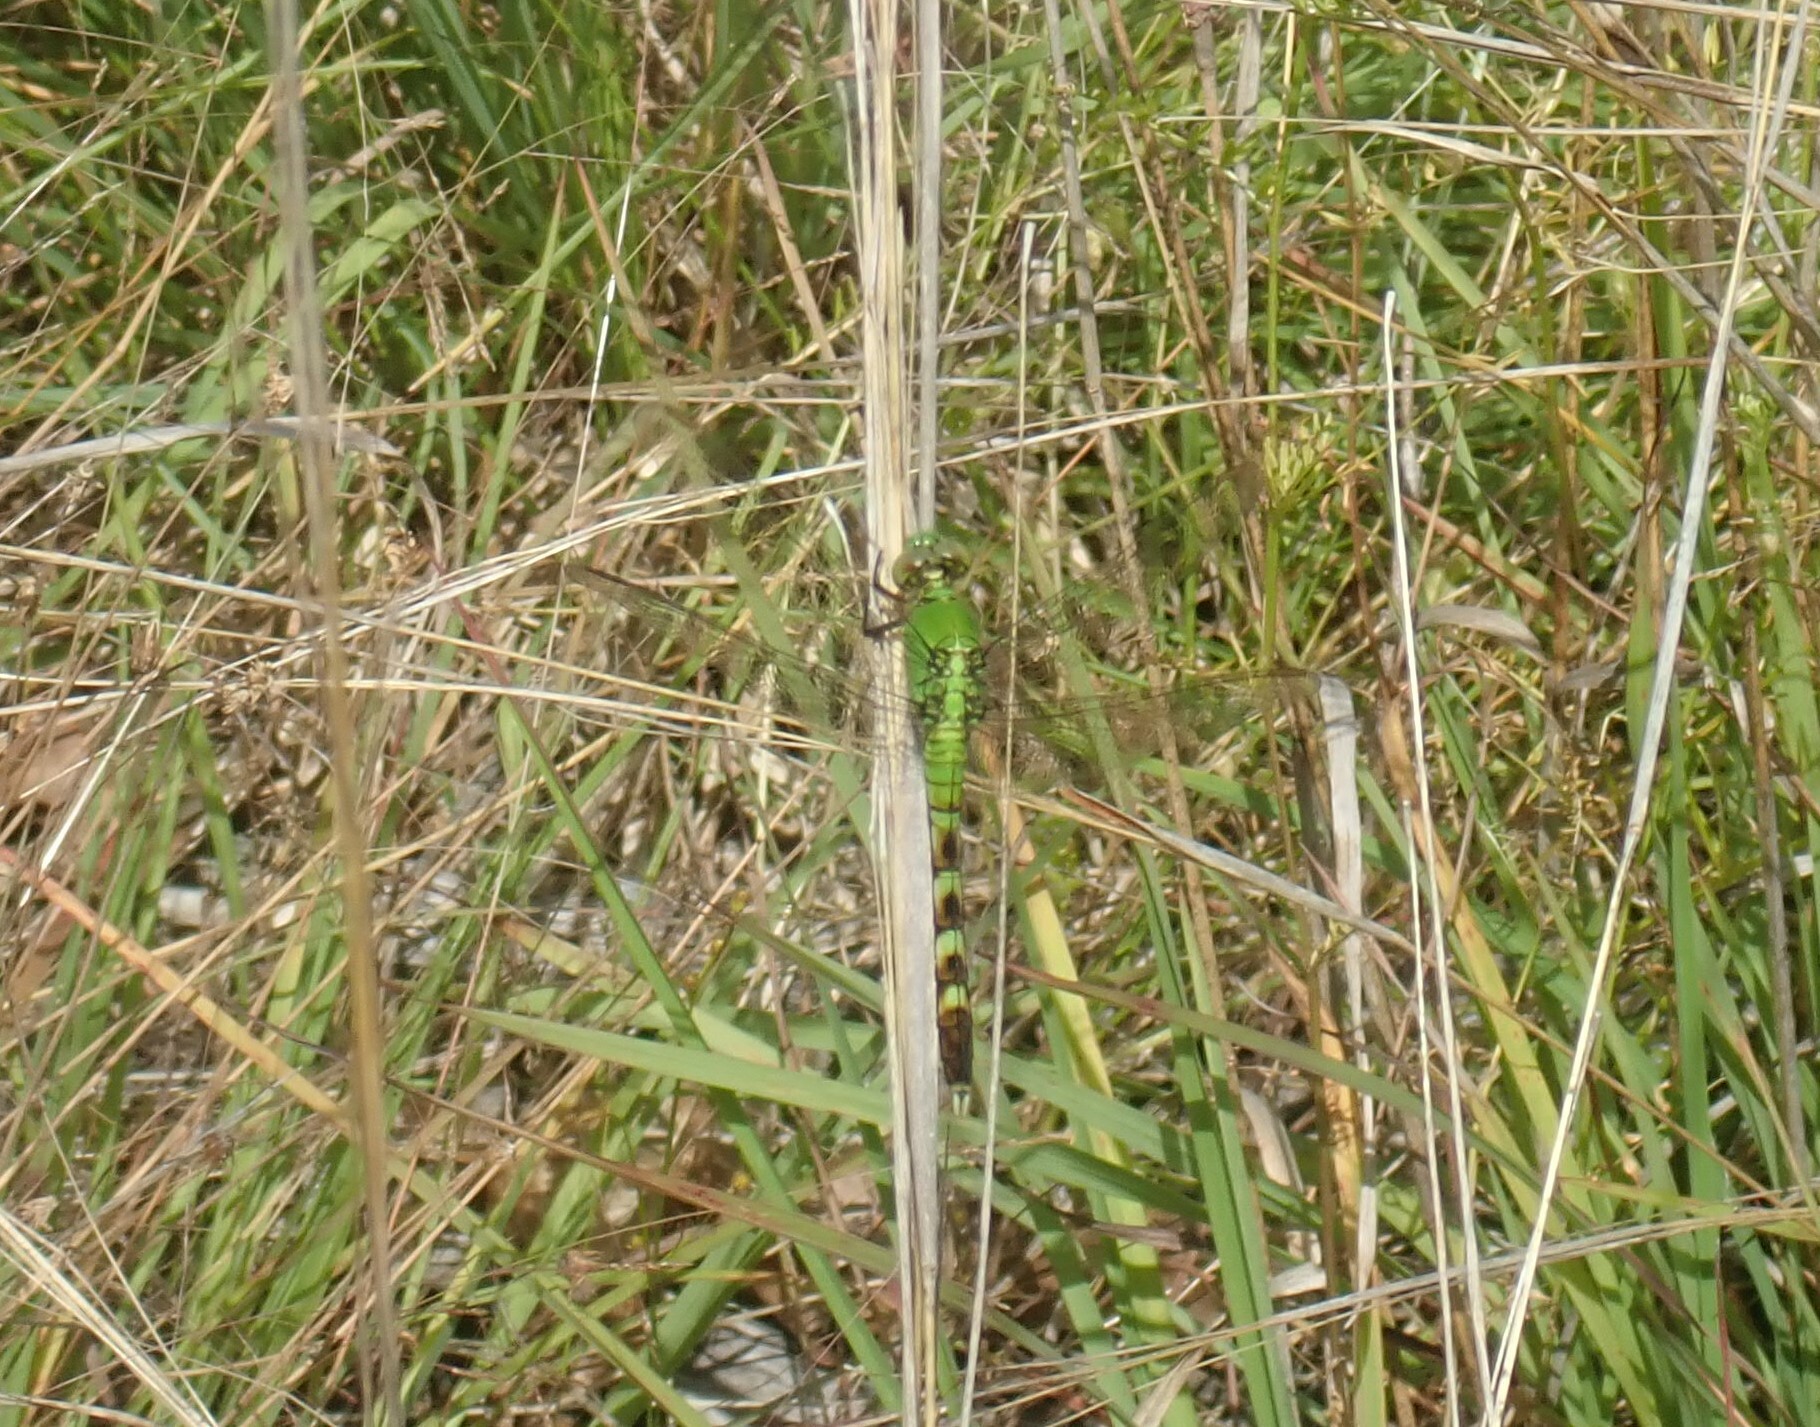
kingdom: Animalia
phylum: Arthropoda
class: Insecta
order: Odonata
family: Libellulidae
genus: Erythemis
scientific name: Erythemis simplicicollis
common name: Eastern pondhawk
